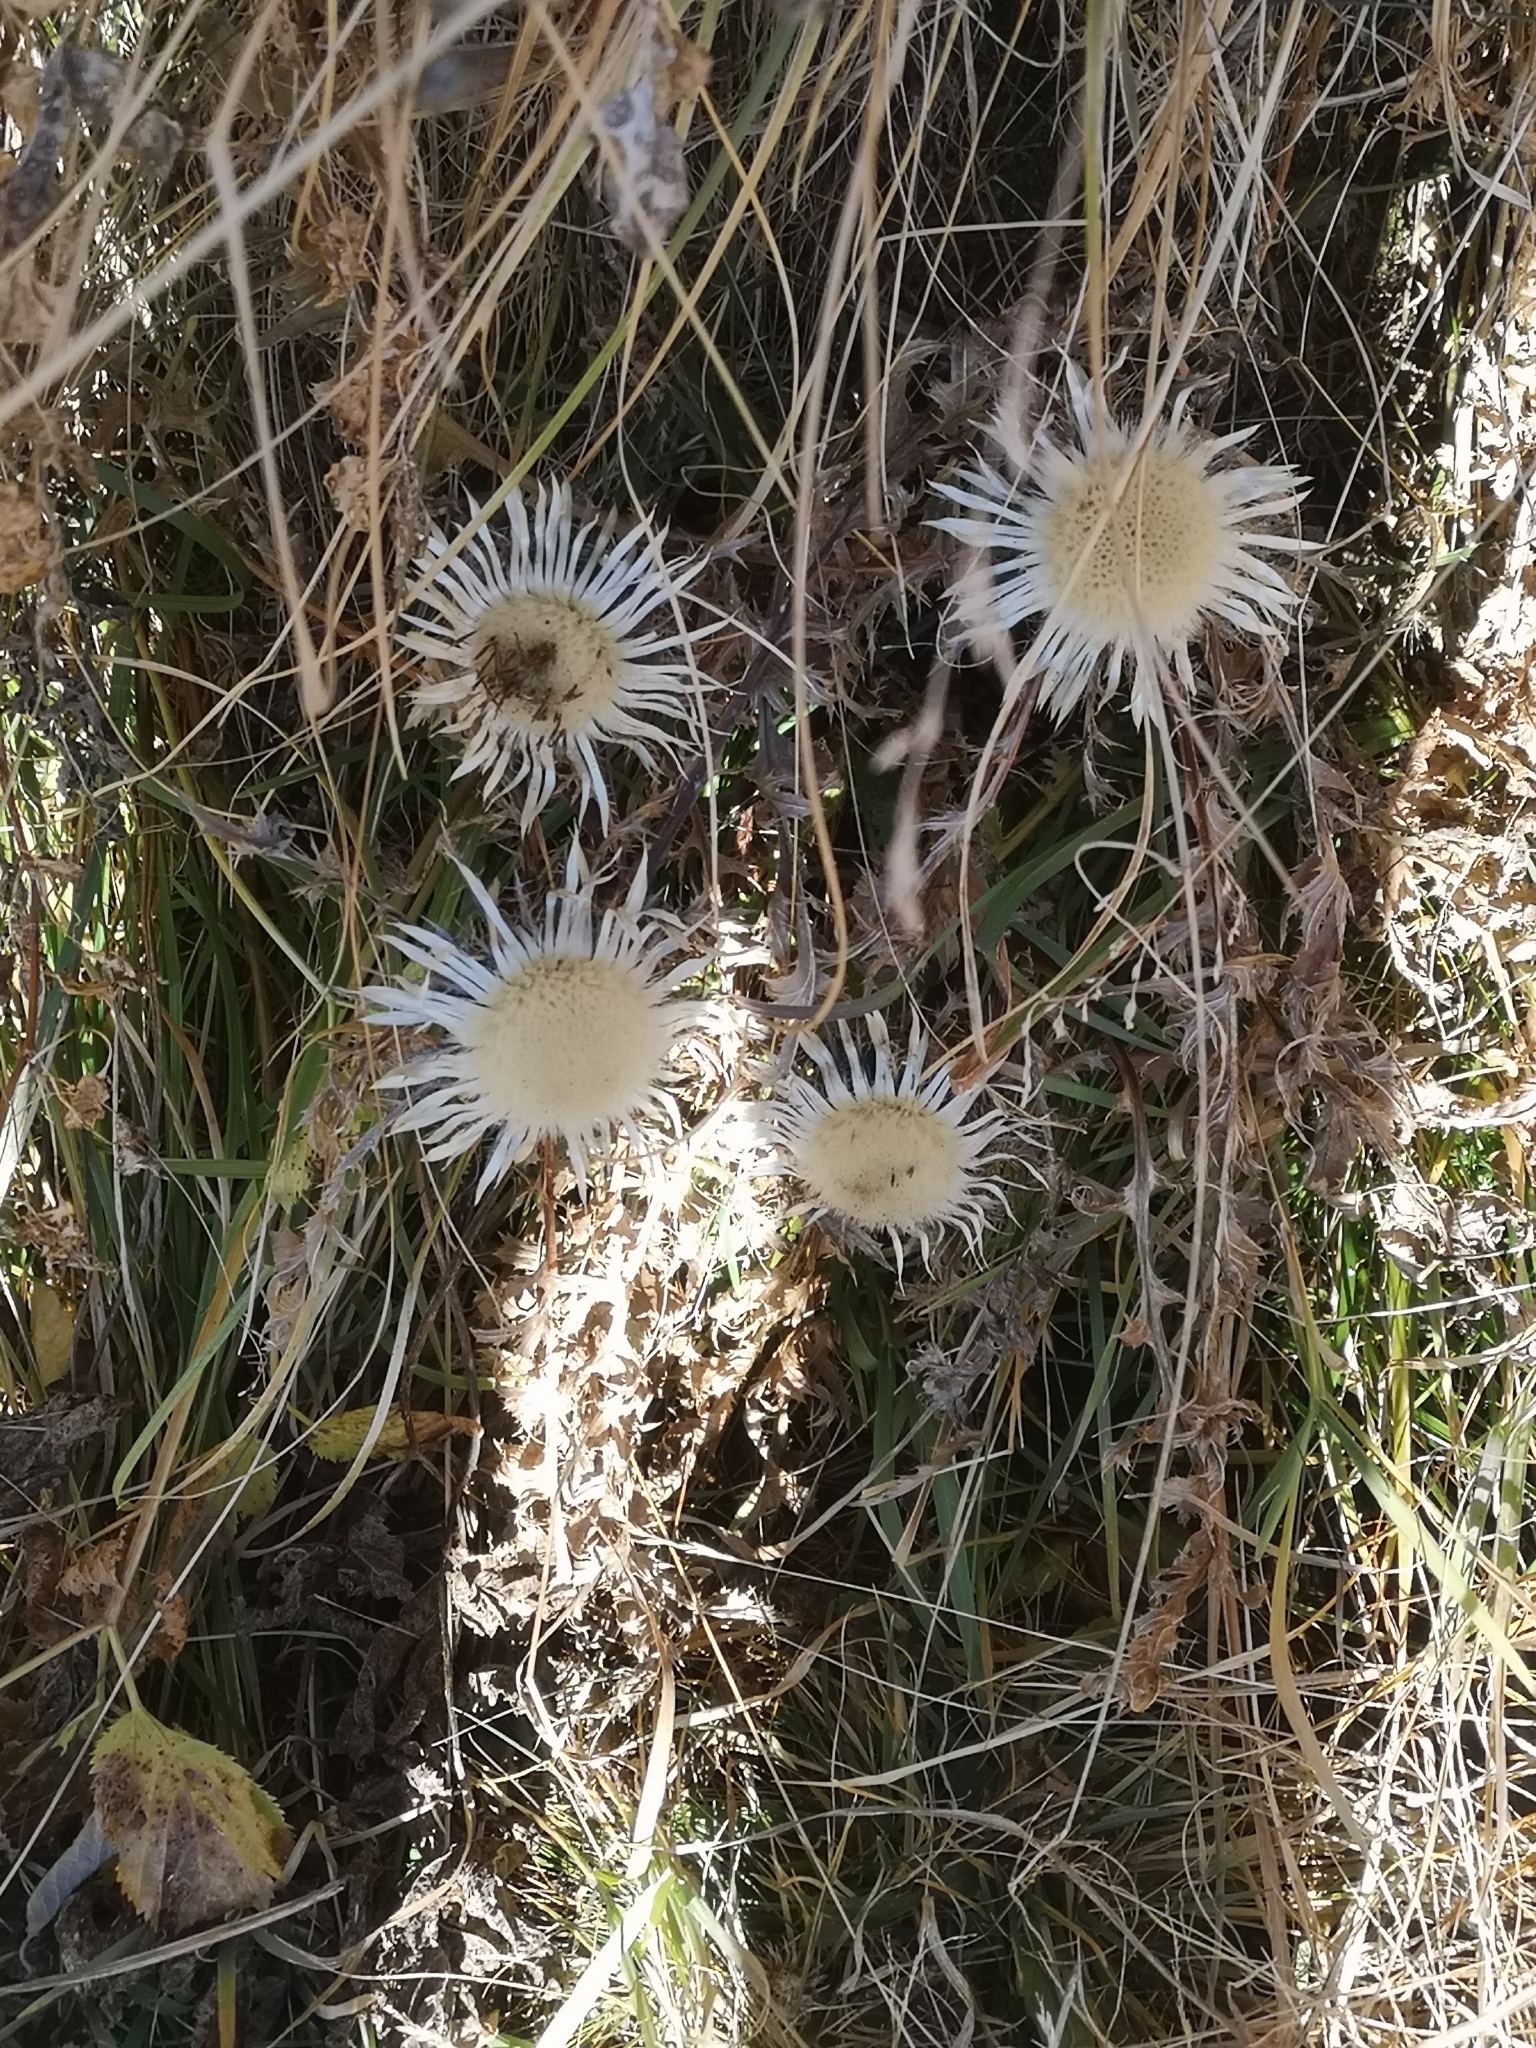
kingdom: Plantae
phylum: Tracheophyta
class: Magnoliopsida
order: Asterales
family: Asteraceae
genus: Carlina
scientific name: Carlina acaulis
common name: Stemless carline thistle
